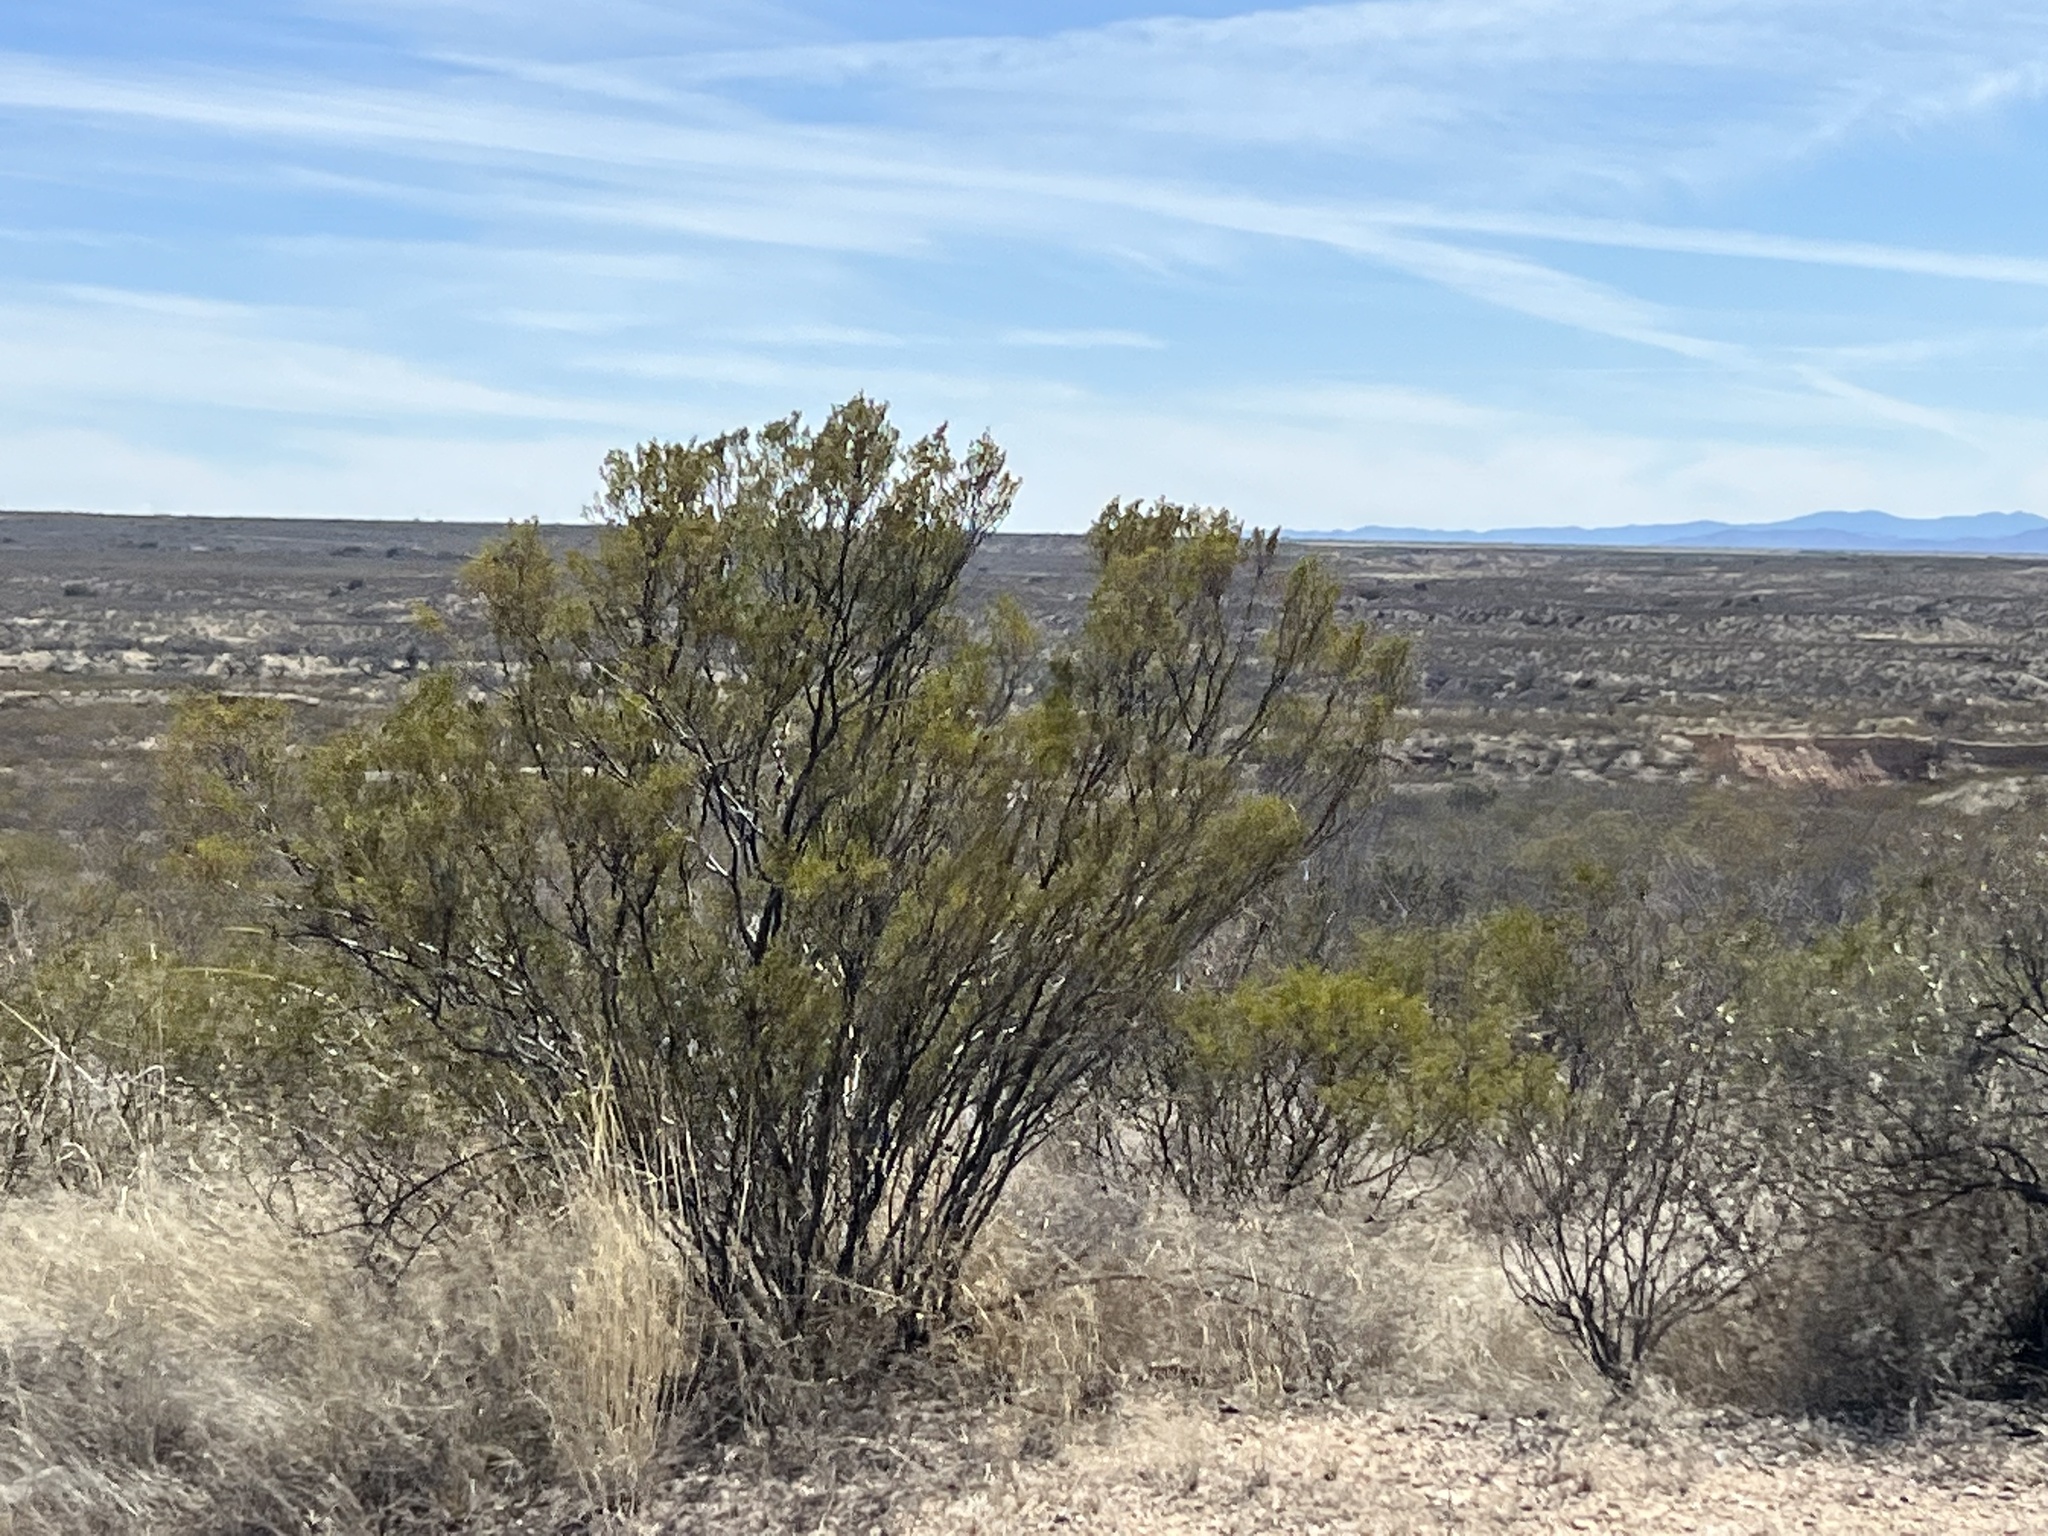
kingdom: Plantae
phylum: Tracheophyta
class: Magnoliopsida
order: Zygophyllales
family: Zygophyllaceae
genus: Larrea
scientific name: Larrea tridentata
